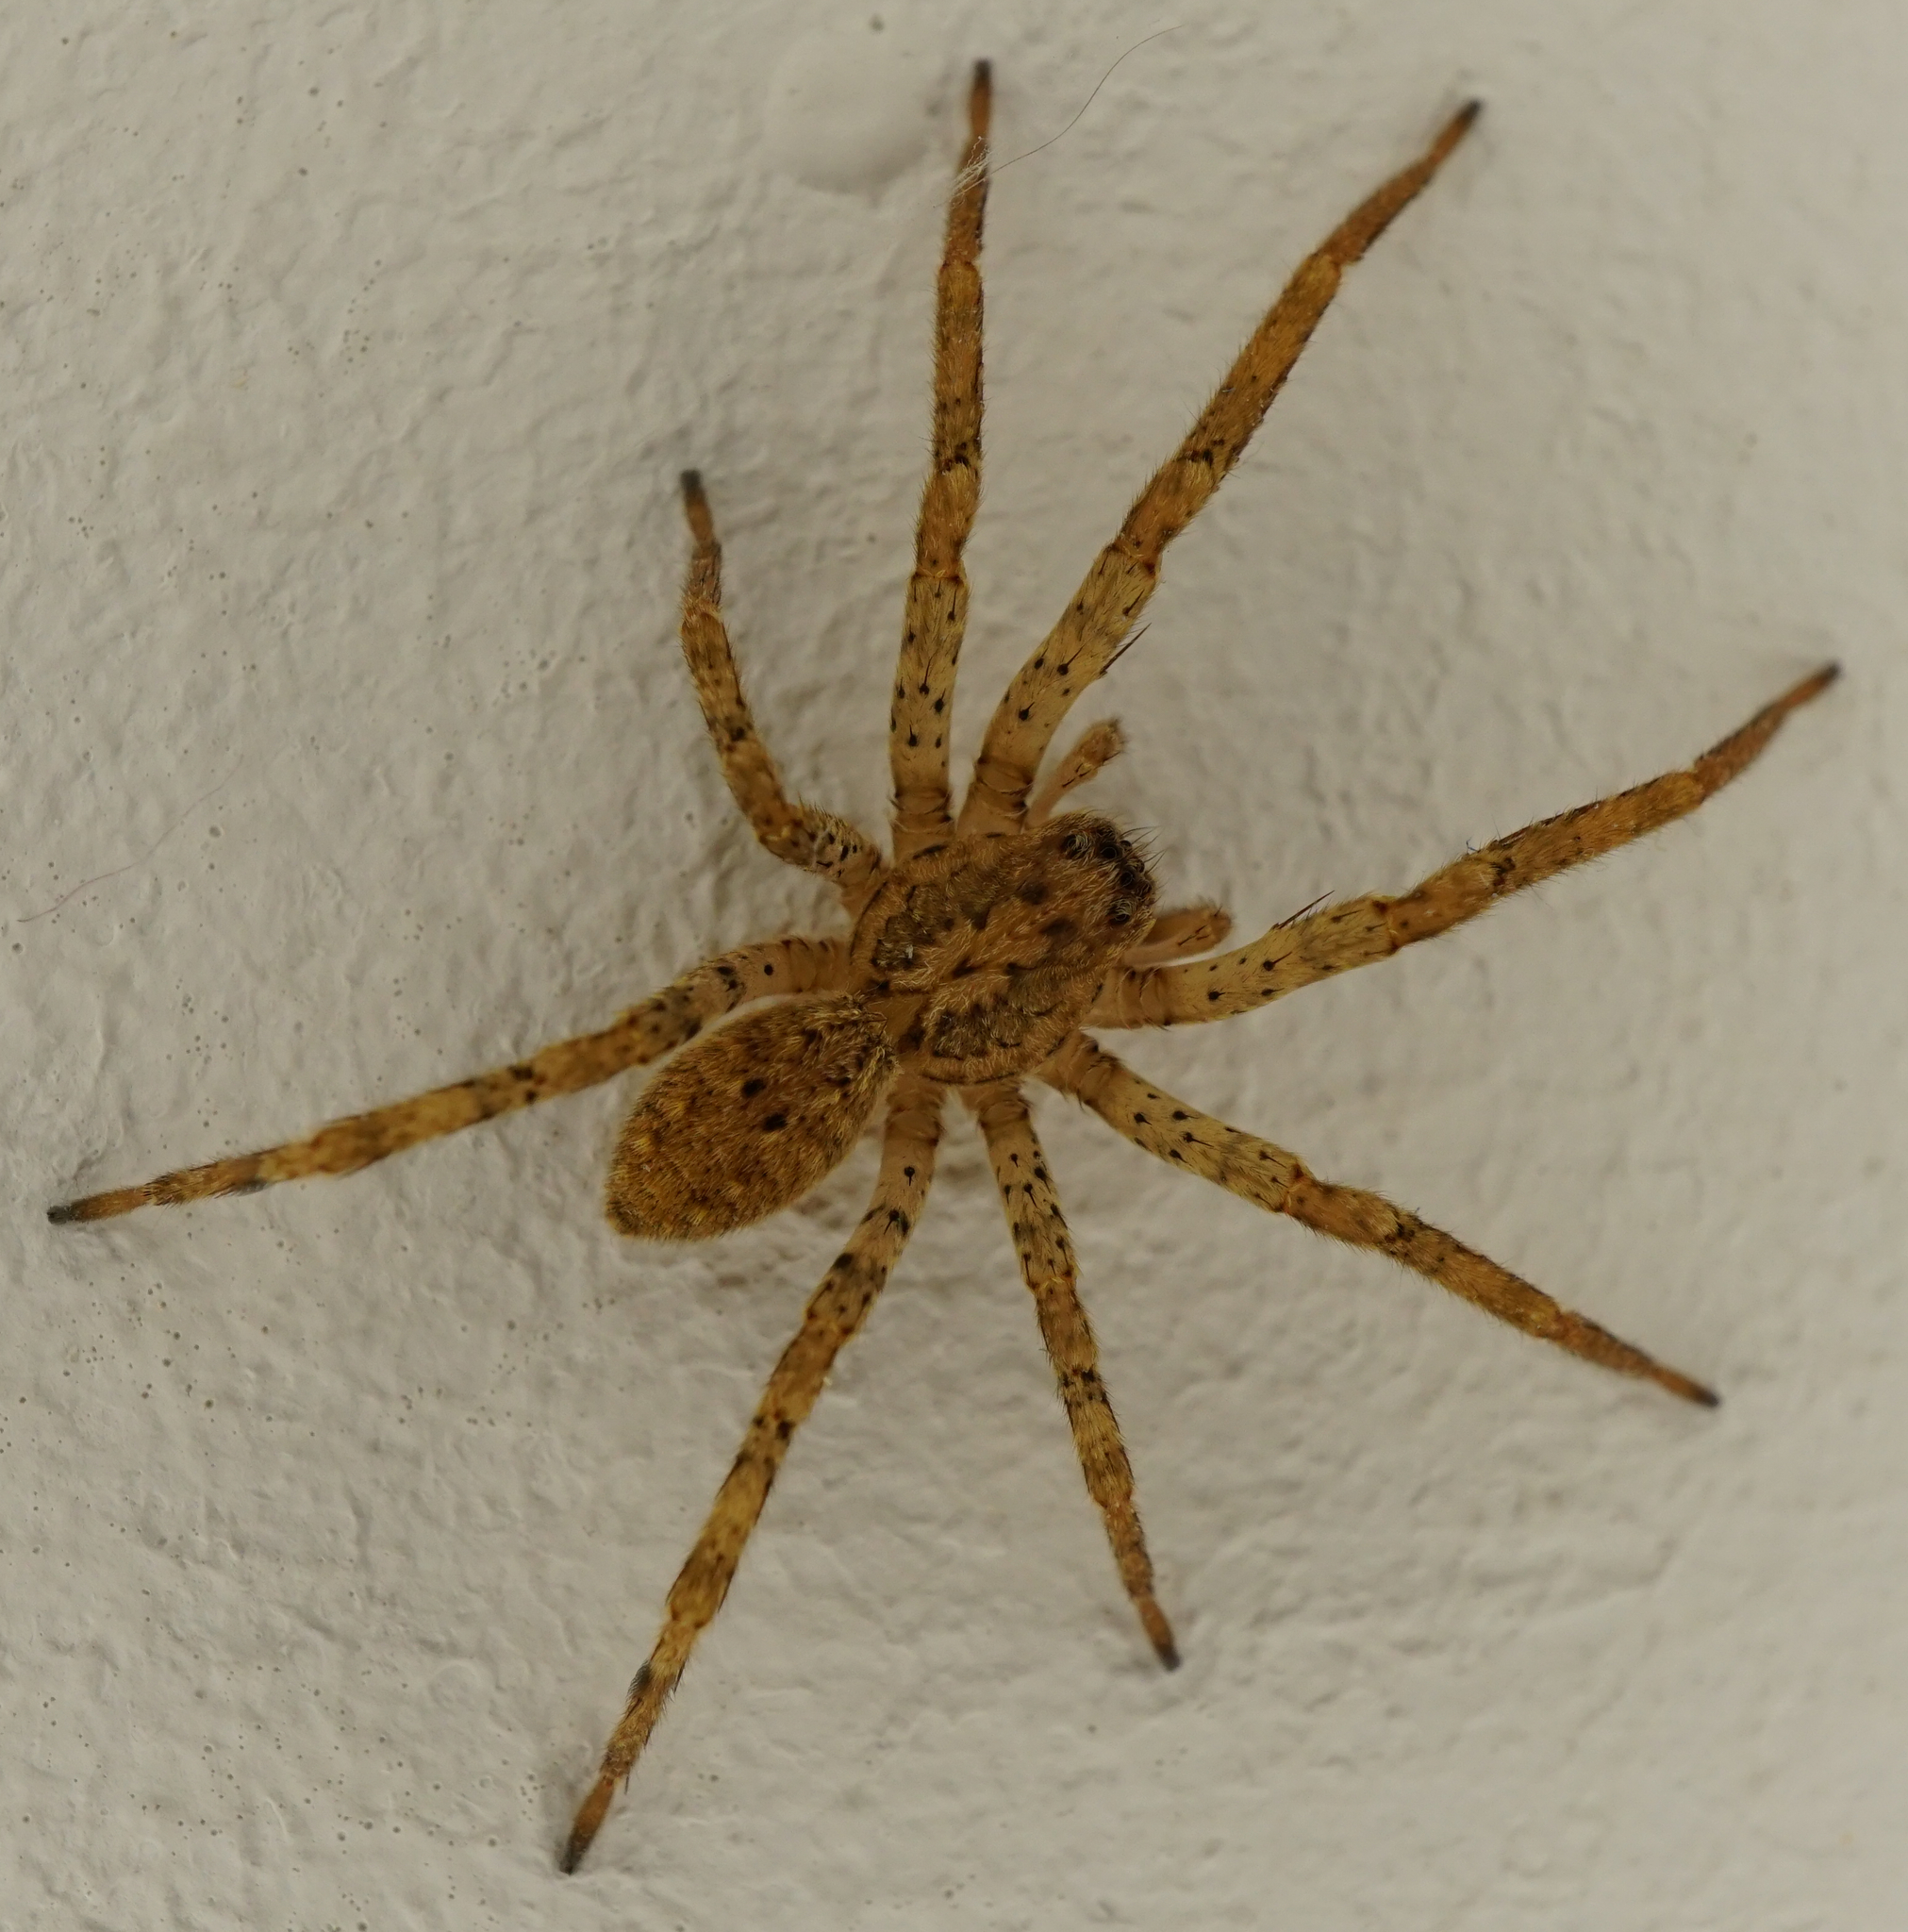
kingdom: Animalia
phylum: Arthropoda
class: Arachnida
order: Araneae
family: Zoropsidae
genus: Zoropsis
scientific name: Zoropsis spinimana
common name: Zoropsid spider
